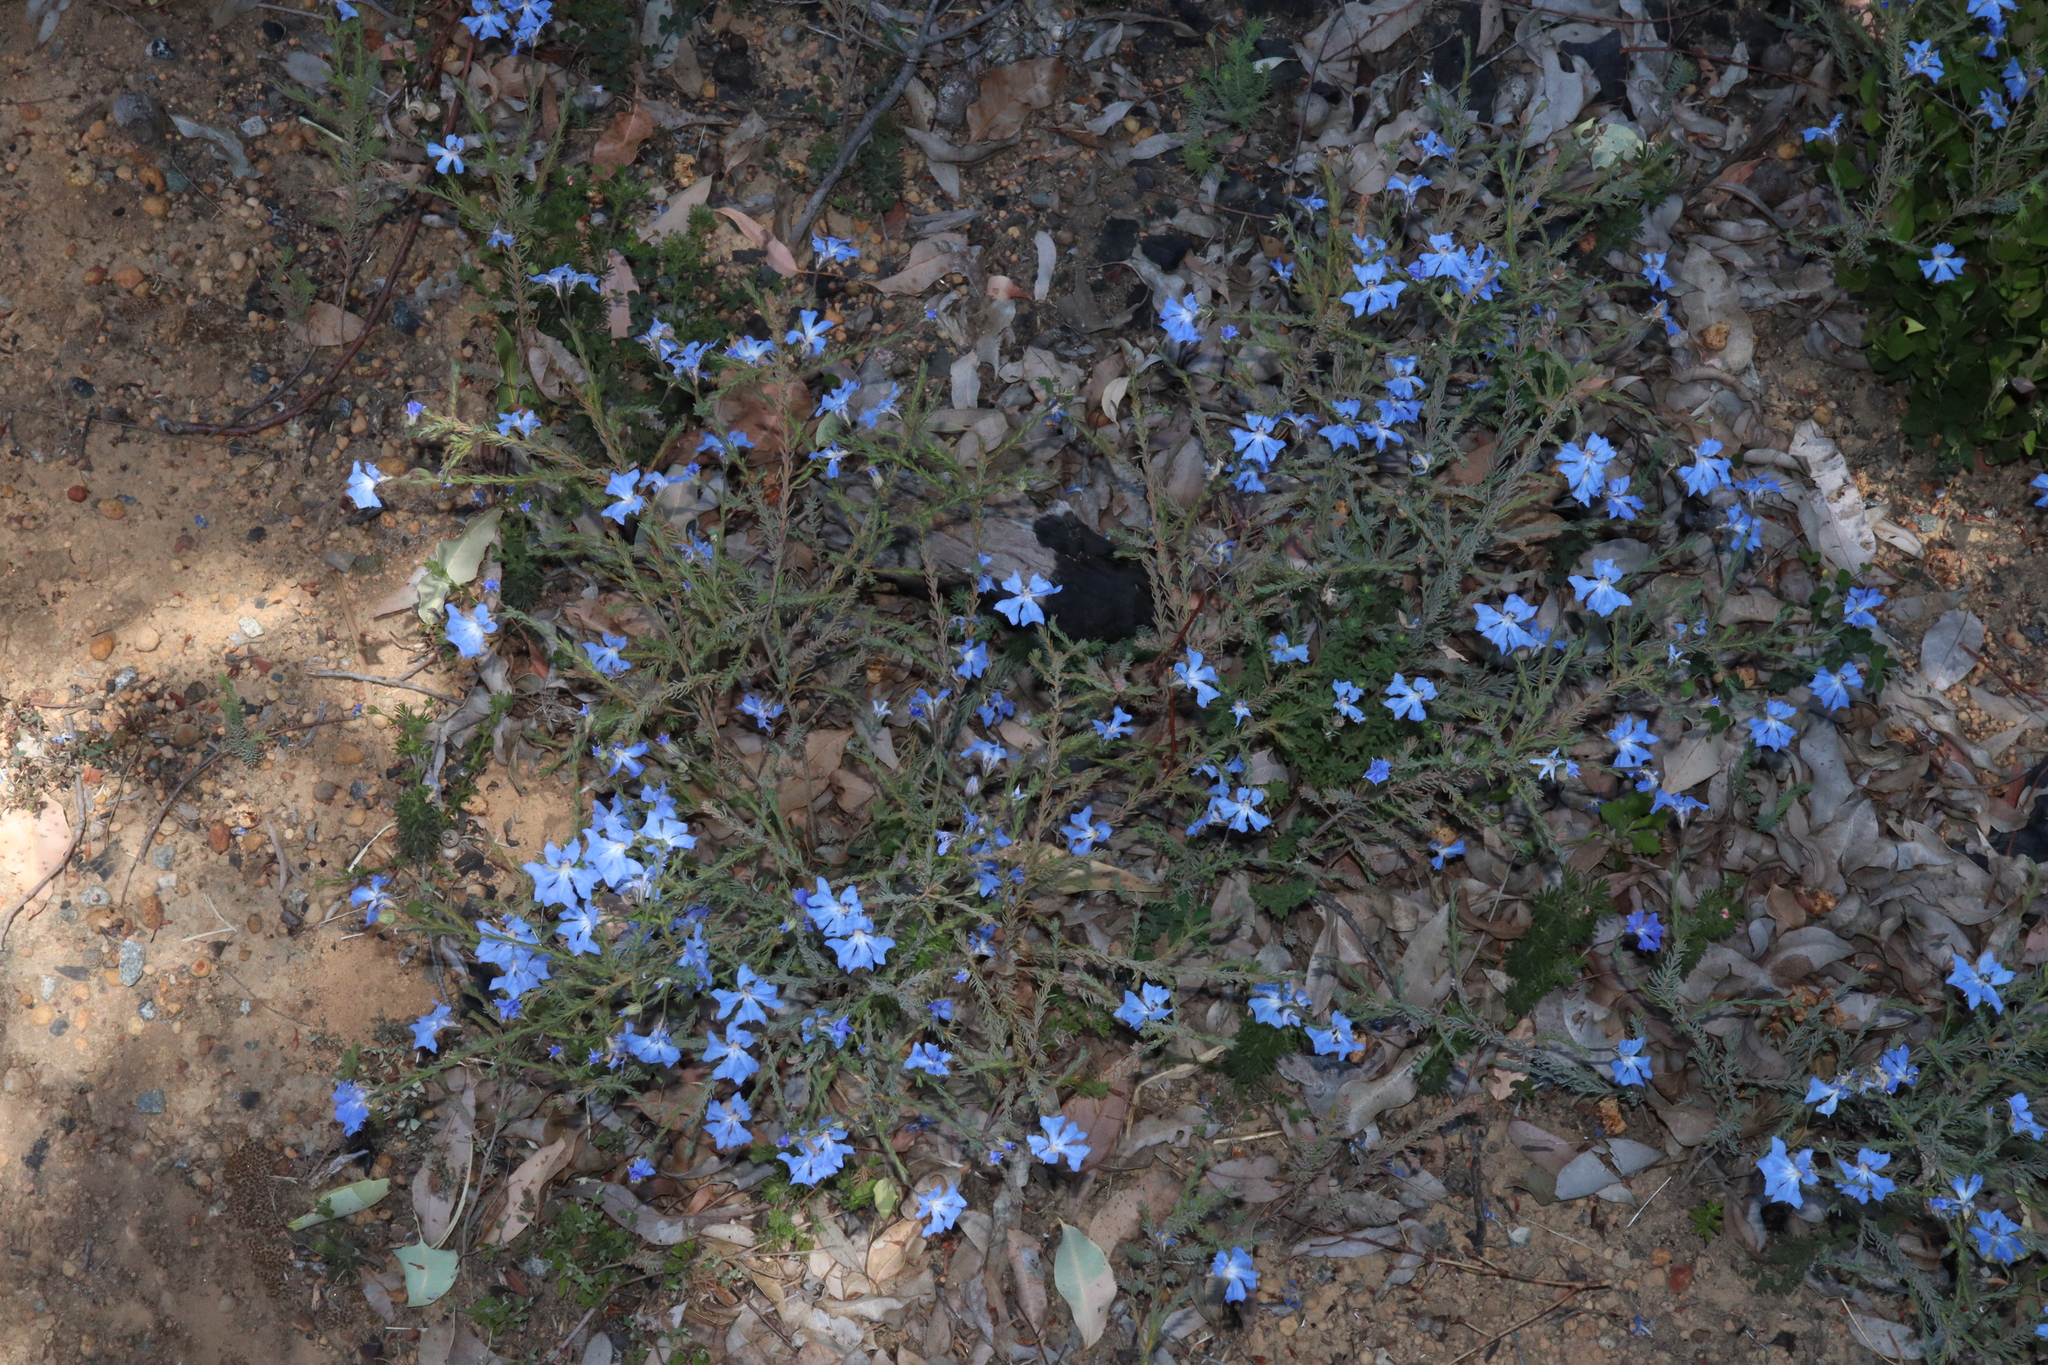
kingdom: Plantae
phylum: Tracheophyta
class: Magnoliopsida
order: Asterales
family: Goodeniaceae
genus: Lechenaultia
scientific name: Lechenaultia biloba
